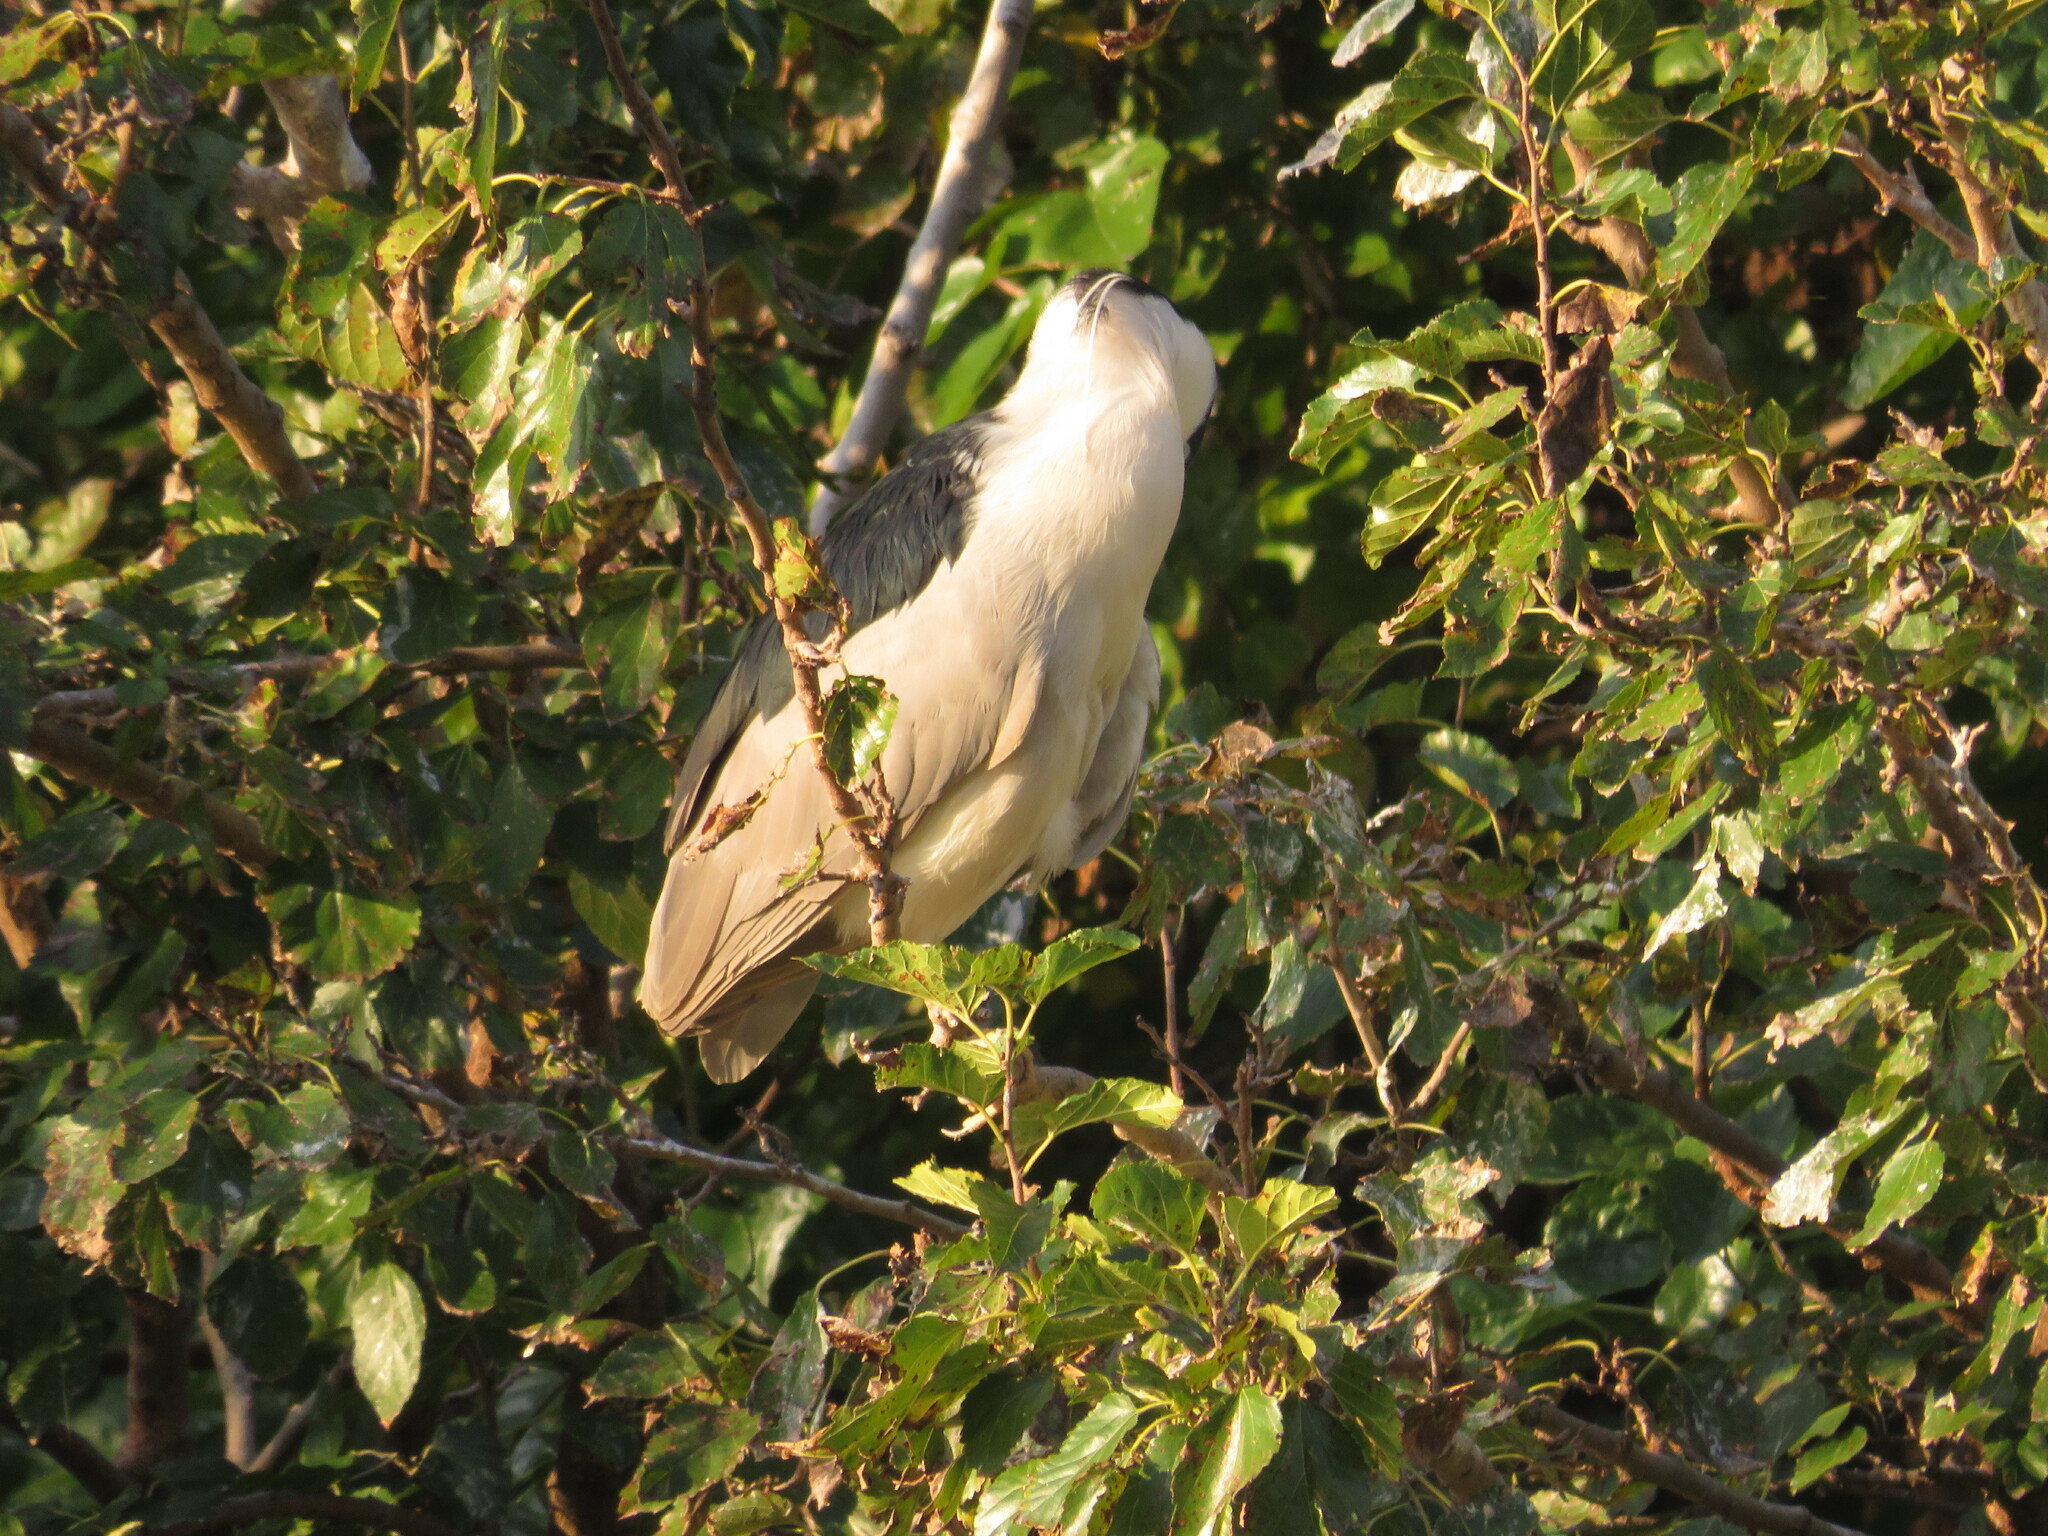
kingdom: Animalia
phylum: Chordata
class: Aves
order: Pelecaniformes
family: Ardeidae
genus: Nycticorax
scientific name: Nycticorax nycticorax
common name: Black-crowned night heron
